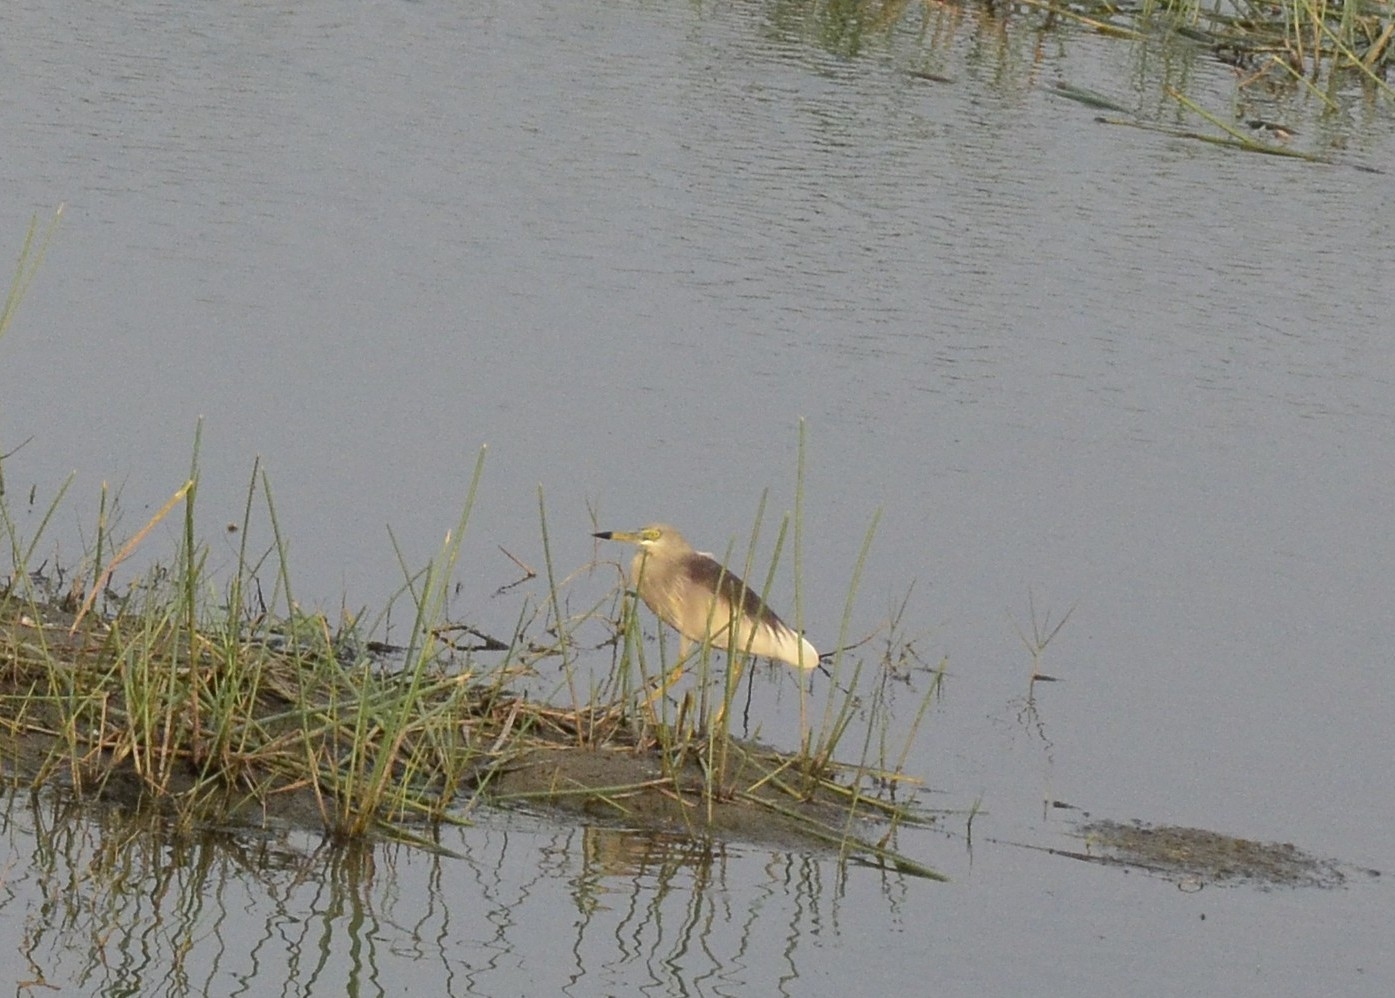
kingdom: Animalia
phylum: Chordata
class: Aves
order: Pelecaniformes
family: Ardeidae
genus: Ardeola
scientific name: Ardeola grayii
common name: Indian pond heron
